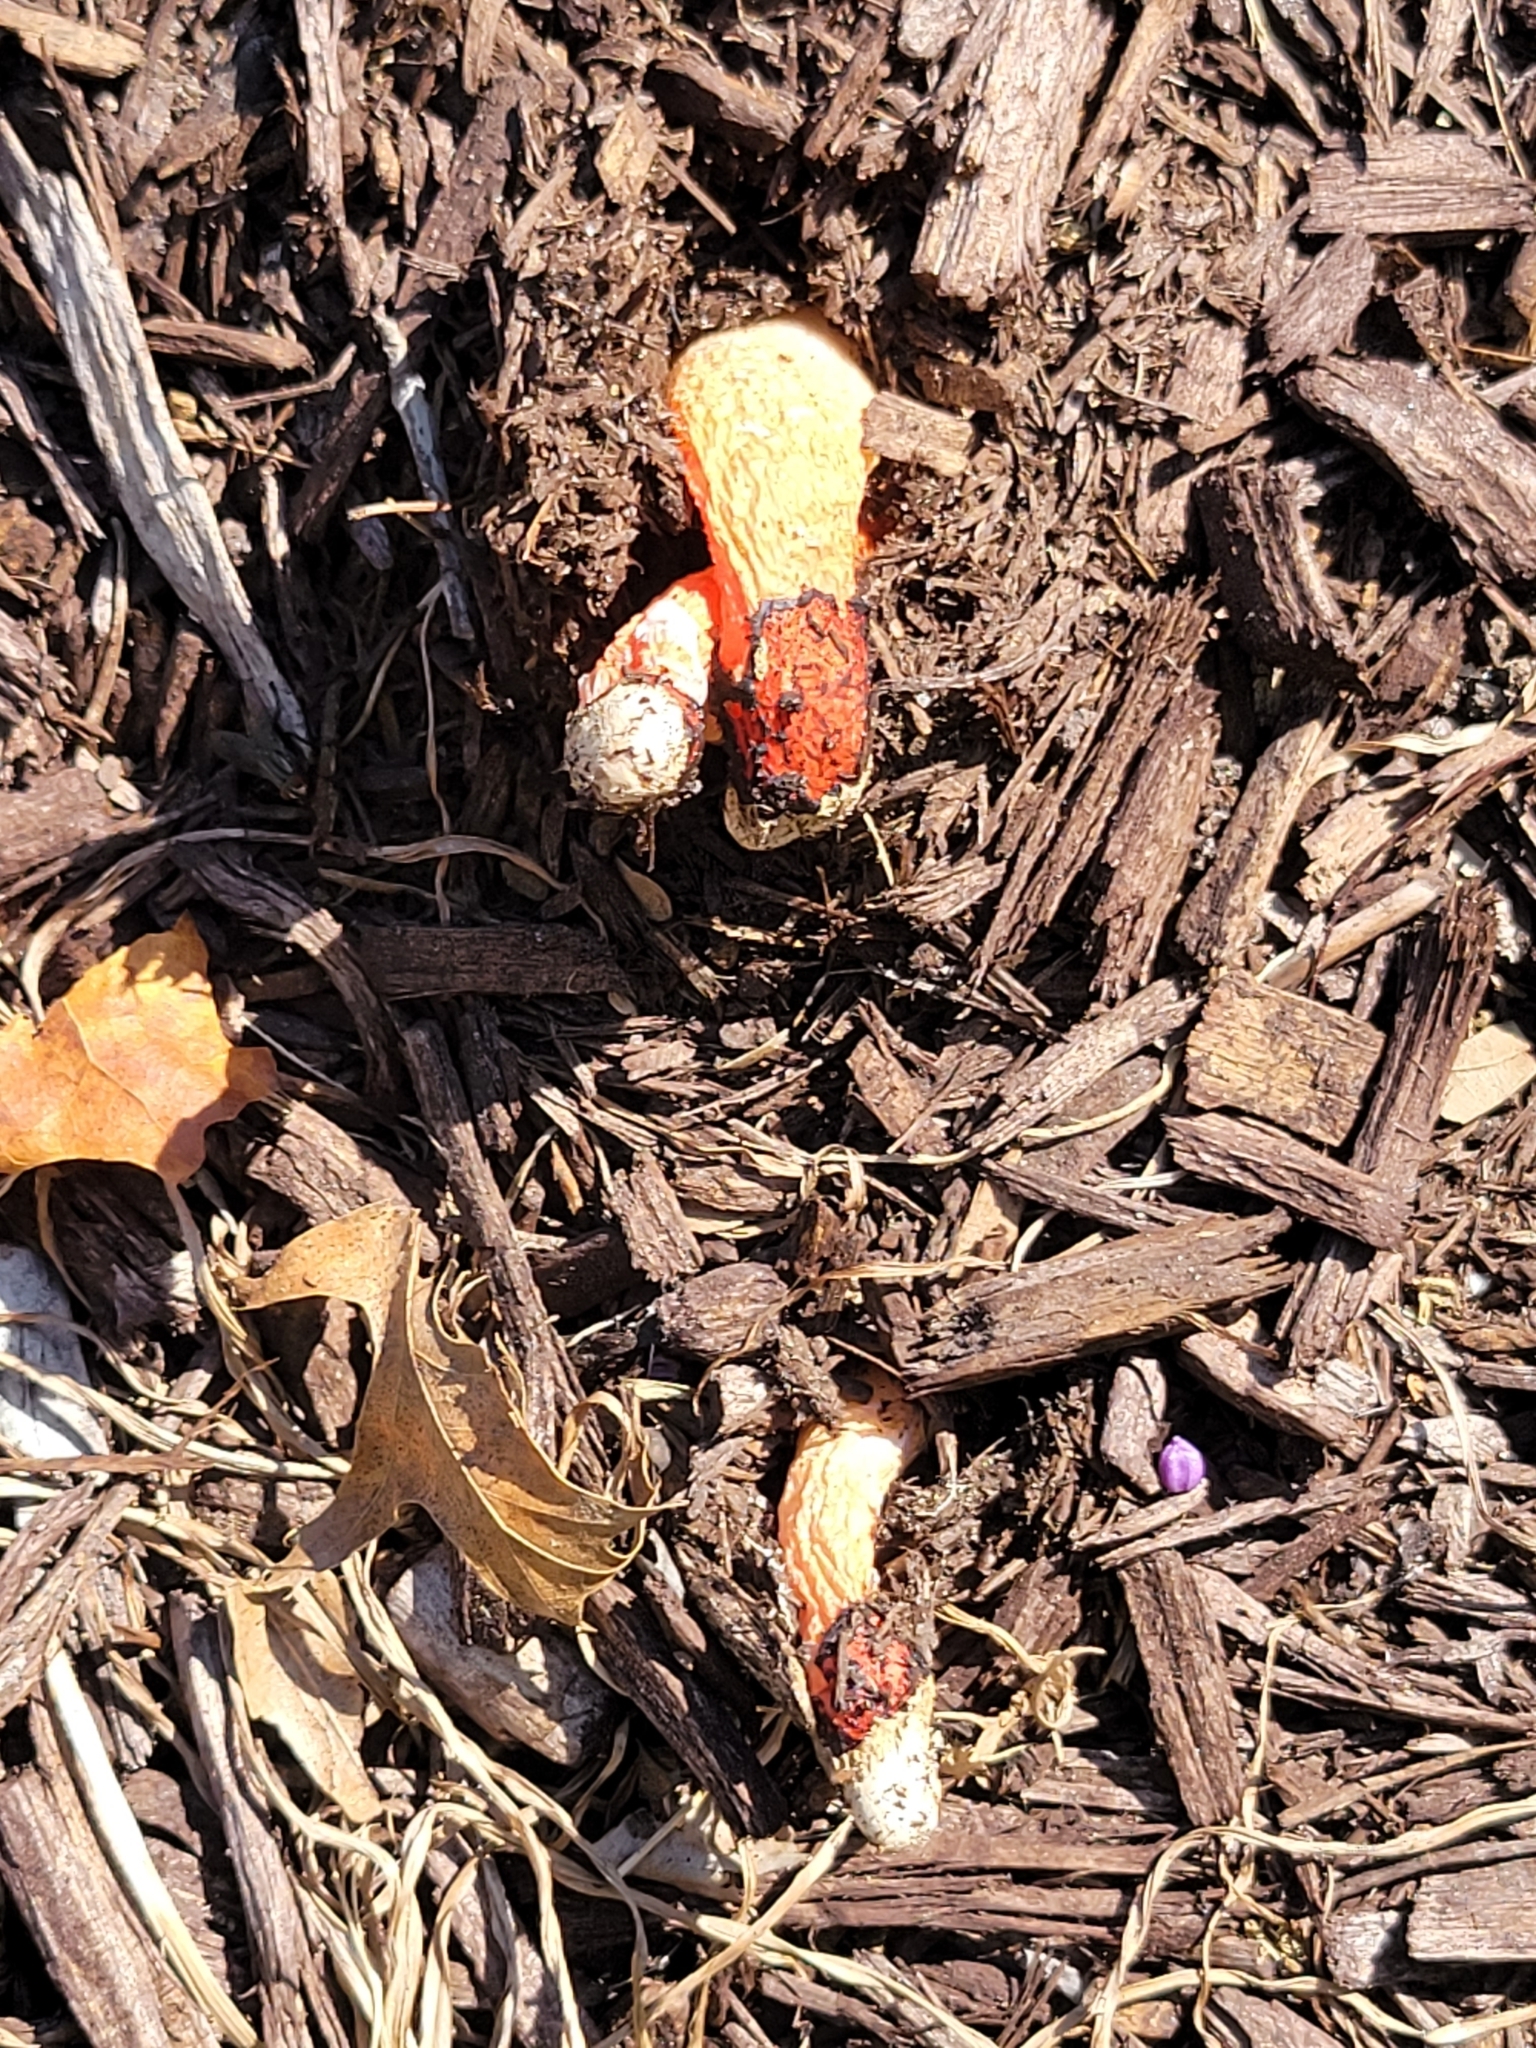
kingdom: Fungi
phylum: Basidiomycota
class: Agaricomycetes
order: Phallales
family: Phallaceae
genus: Phallus
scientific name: Phallus rugulosus
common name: Wrinkly stinkhorn
